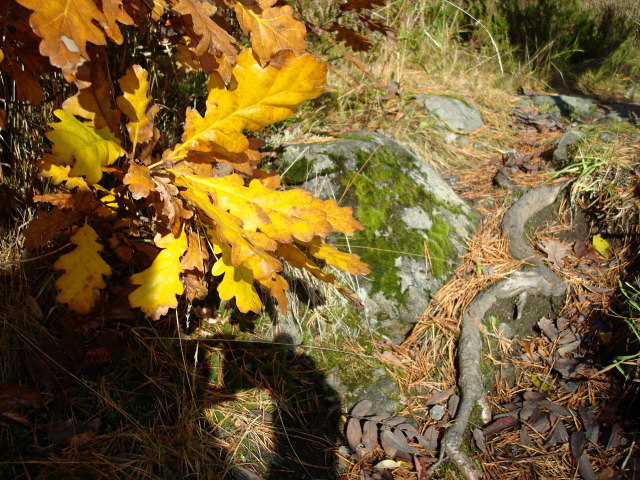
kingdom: Plantae
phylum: Tracheophyta
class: Magnoliopsida
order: Fagales
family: Fagaceae
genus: Quercus
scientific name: Quercus robur
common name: Pedunculate oak
